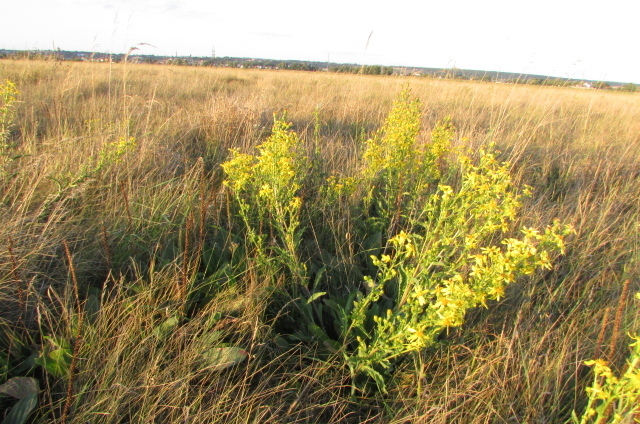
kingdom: Plantae
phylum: Tracheophyta
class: Magnoliopsida
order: Asterales
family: Asteraceae
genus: Jacobaea
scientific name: Jacobaea racemosa
